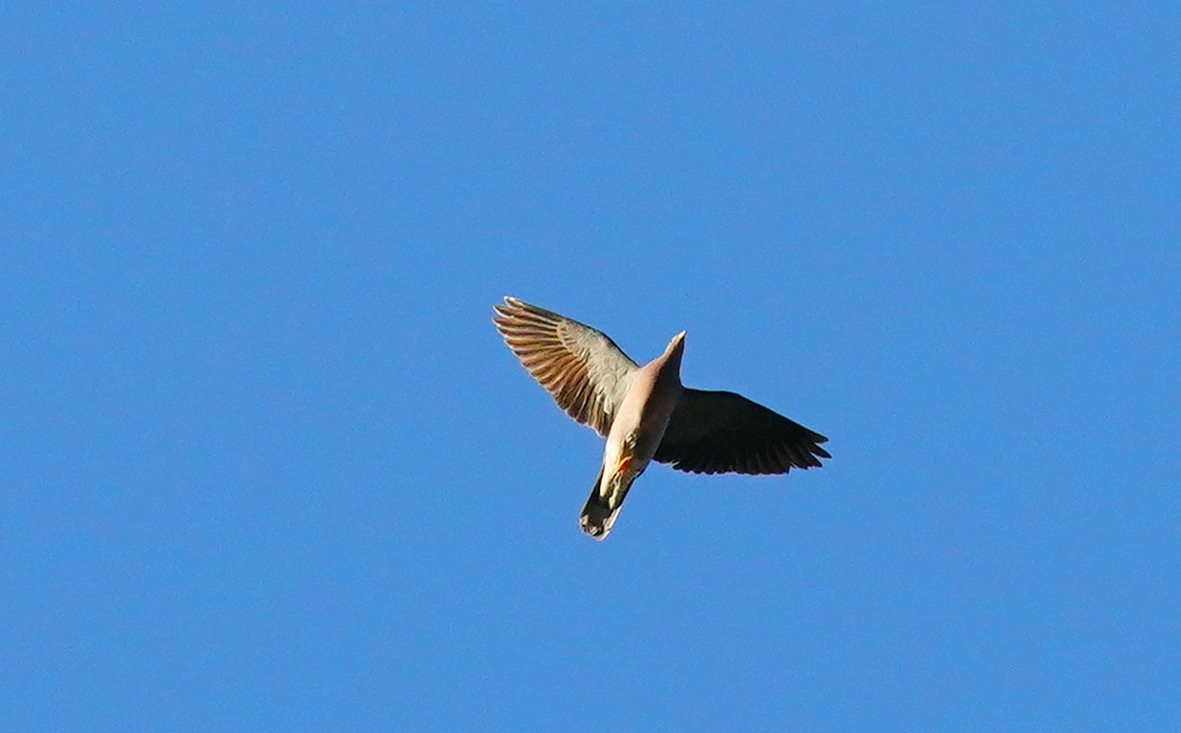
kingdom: Animalia
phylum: Chordata
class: Aves
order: Columbiformes
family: Columbidae
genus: Patagioenas
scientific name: Patagioenas fasciata
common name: Band-tailed pigeon
